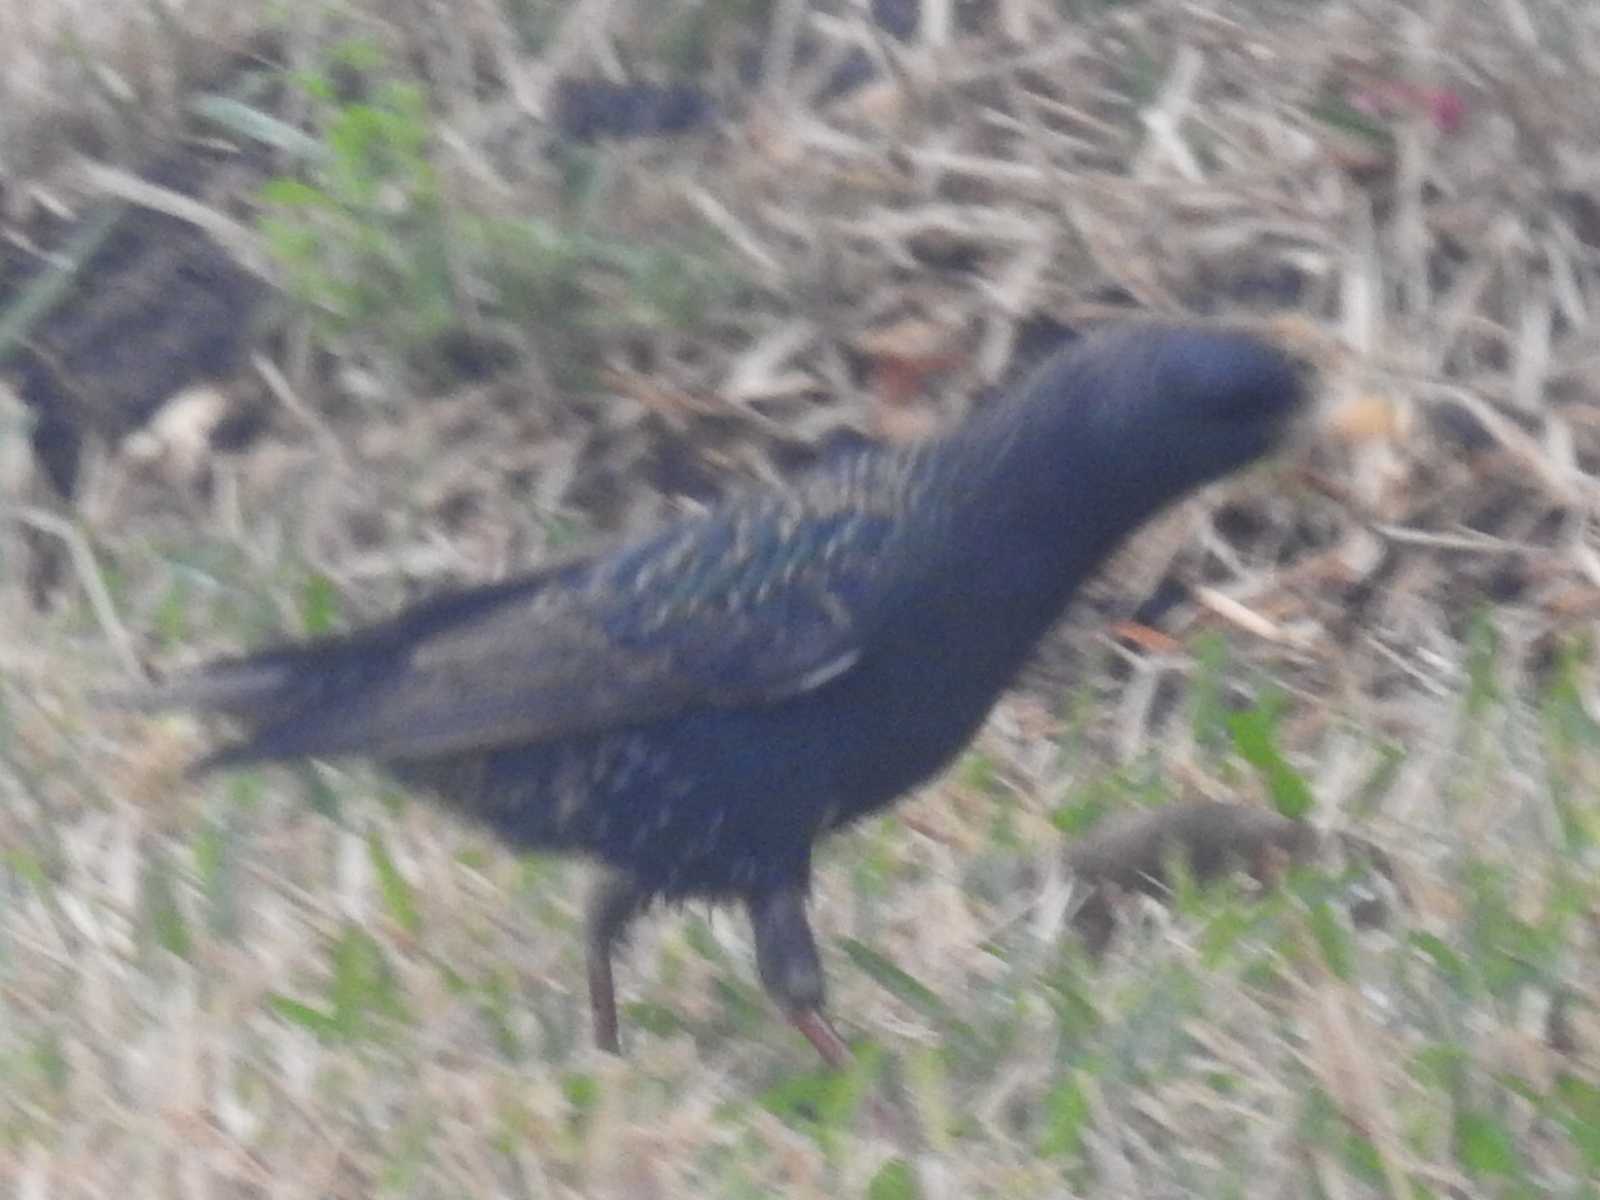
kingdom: Animalia
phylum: Chordata
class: Aves
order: Passeriformes
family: Sturnidae
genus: Sturnus
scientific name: Sturnus vulgaris
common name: Common starling
